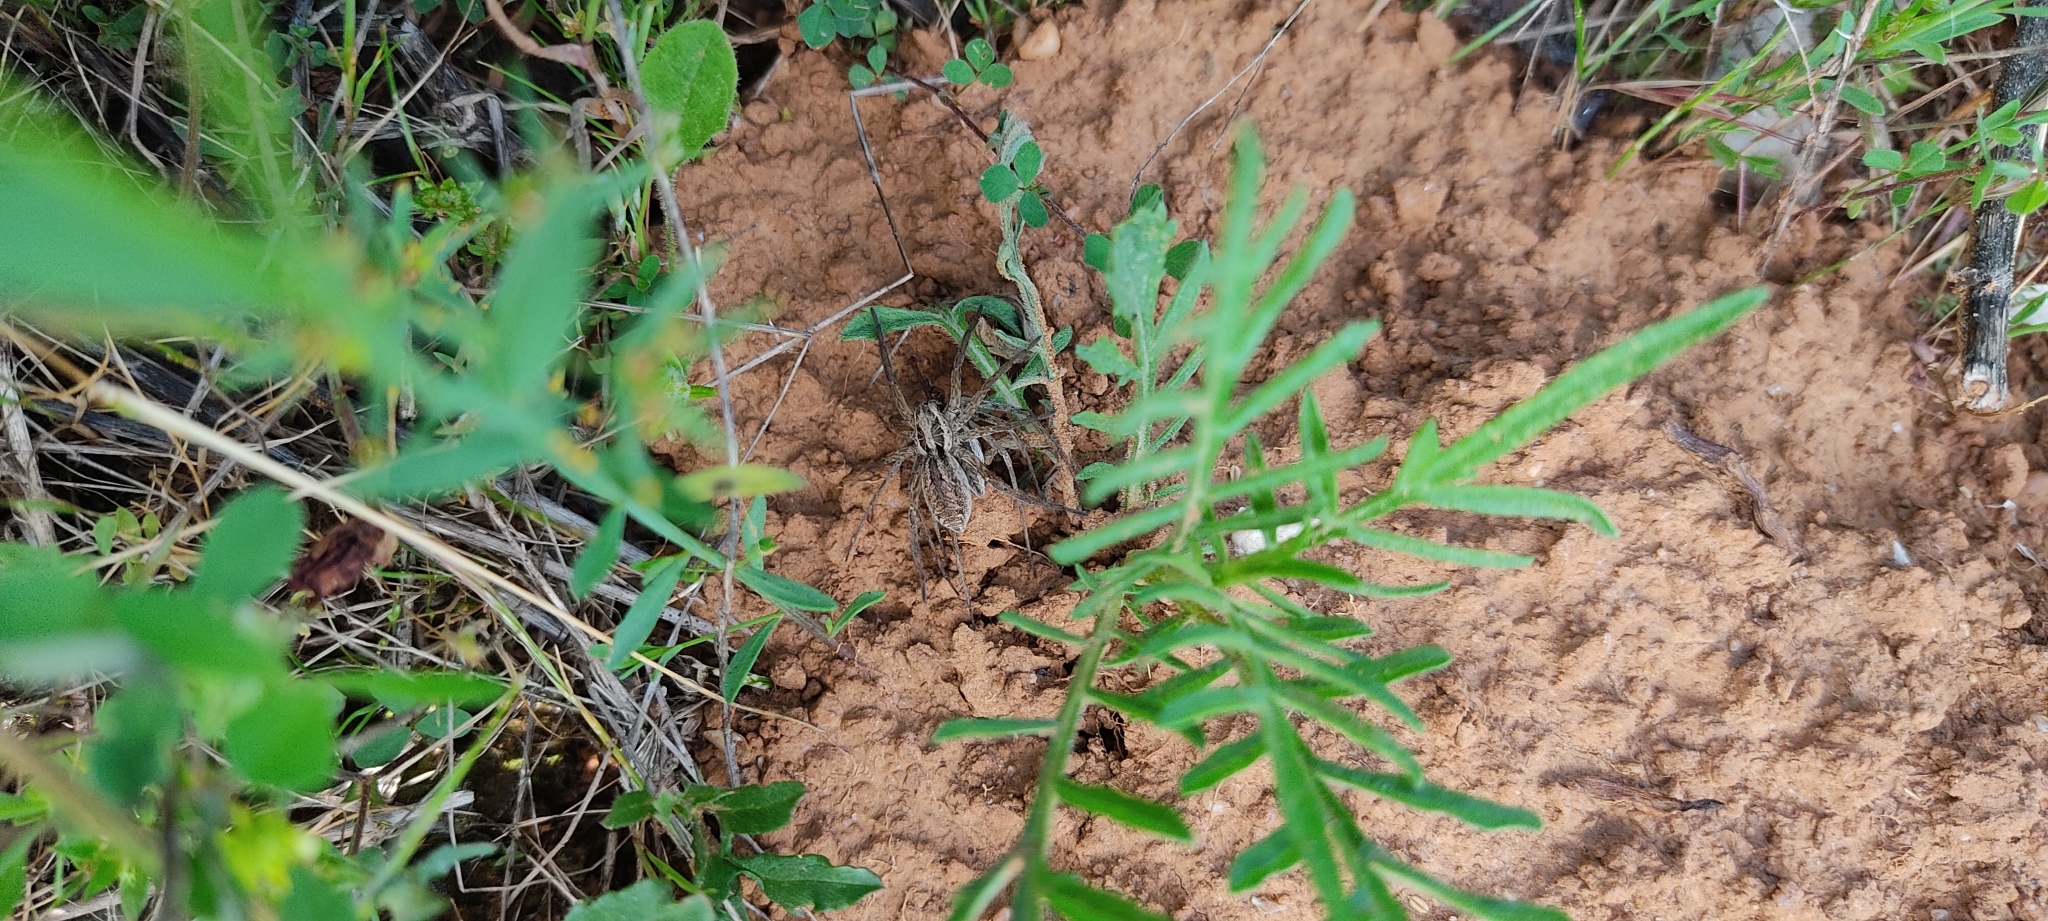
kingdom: Animalia
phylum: Arthropoda
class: Arachnida
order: Araneae
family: Lycosidae
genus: Hogna
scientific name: Hogna radiata
